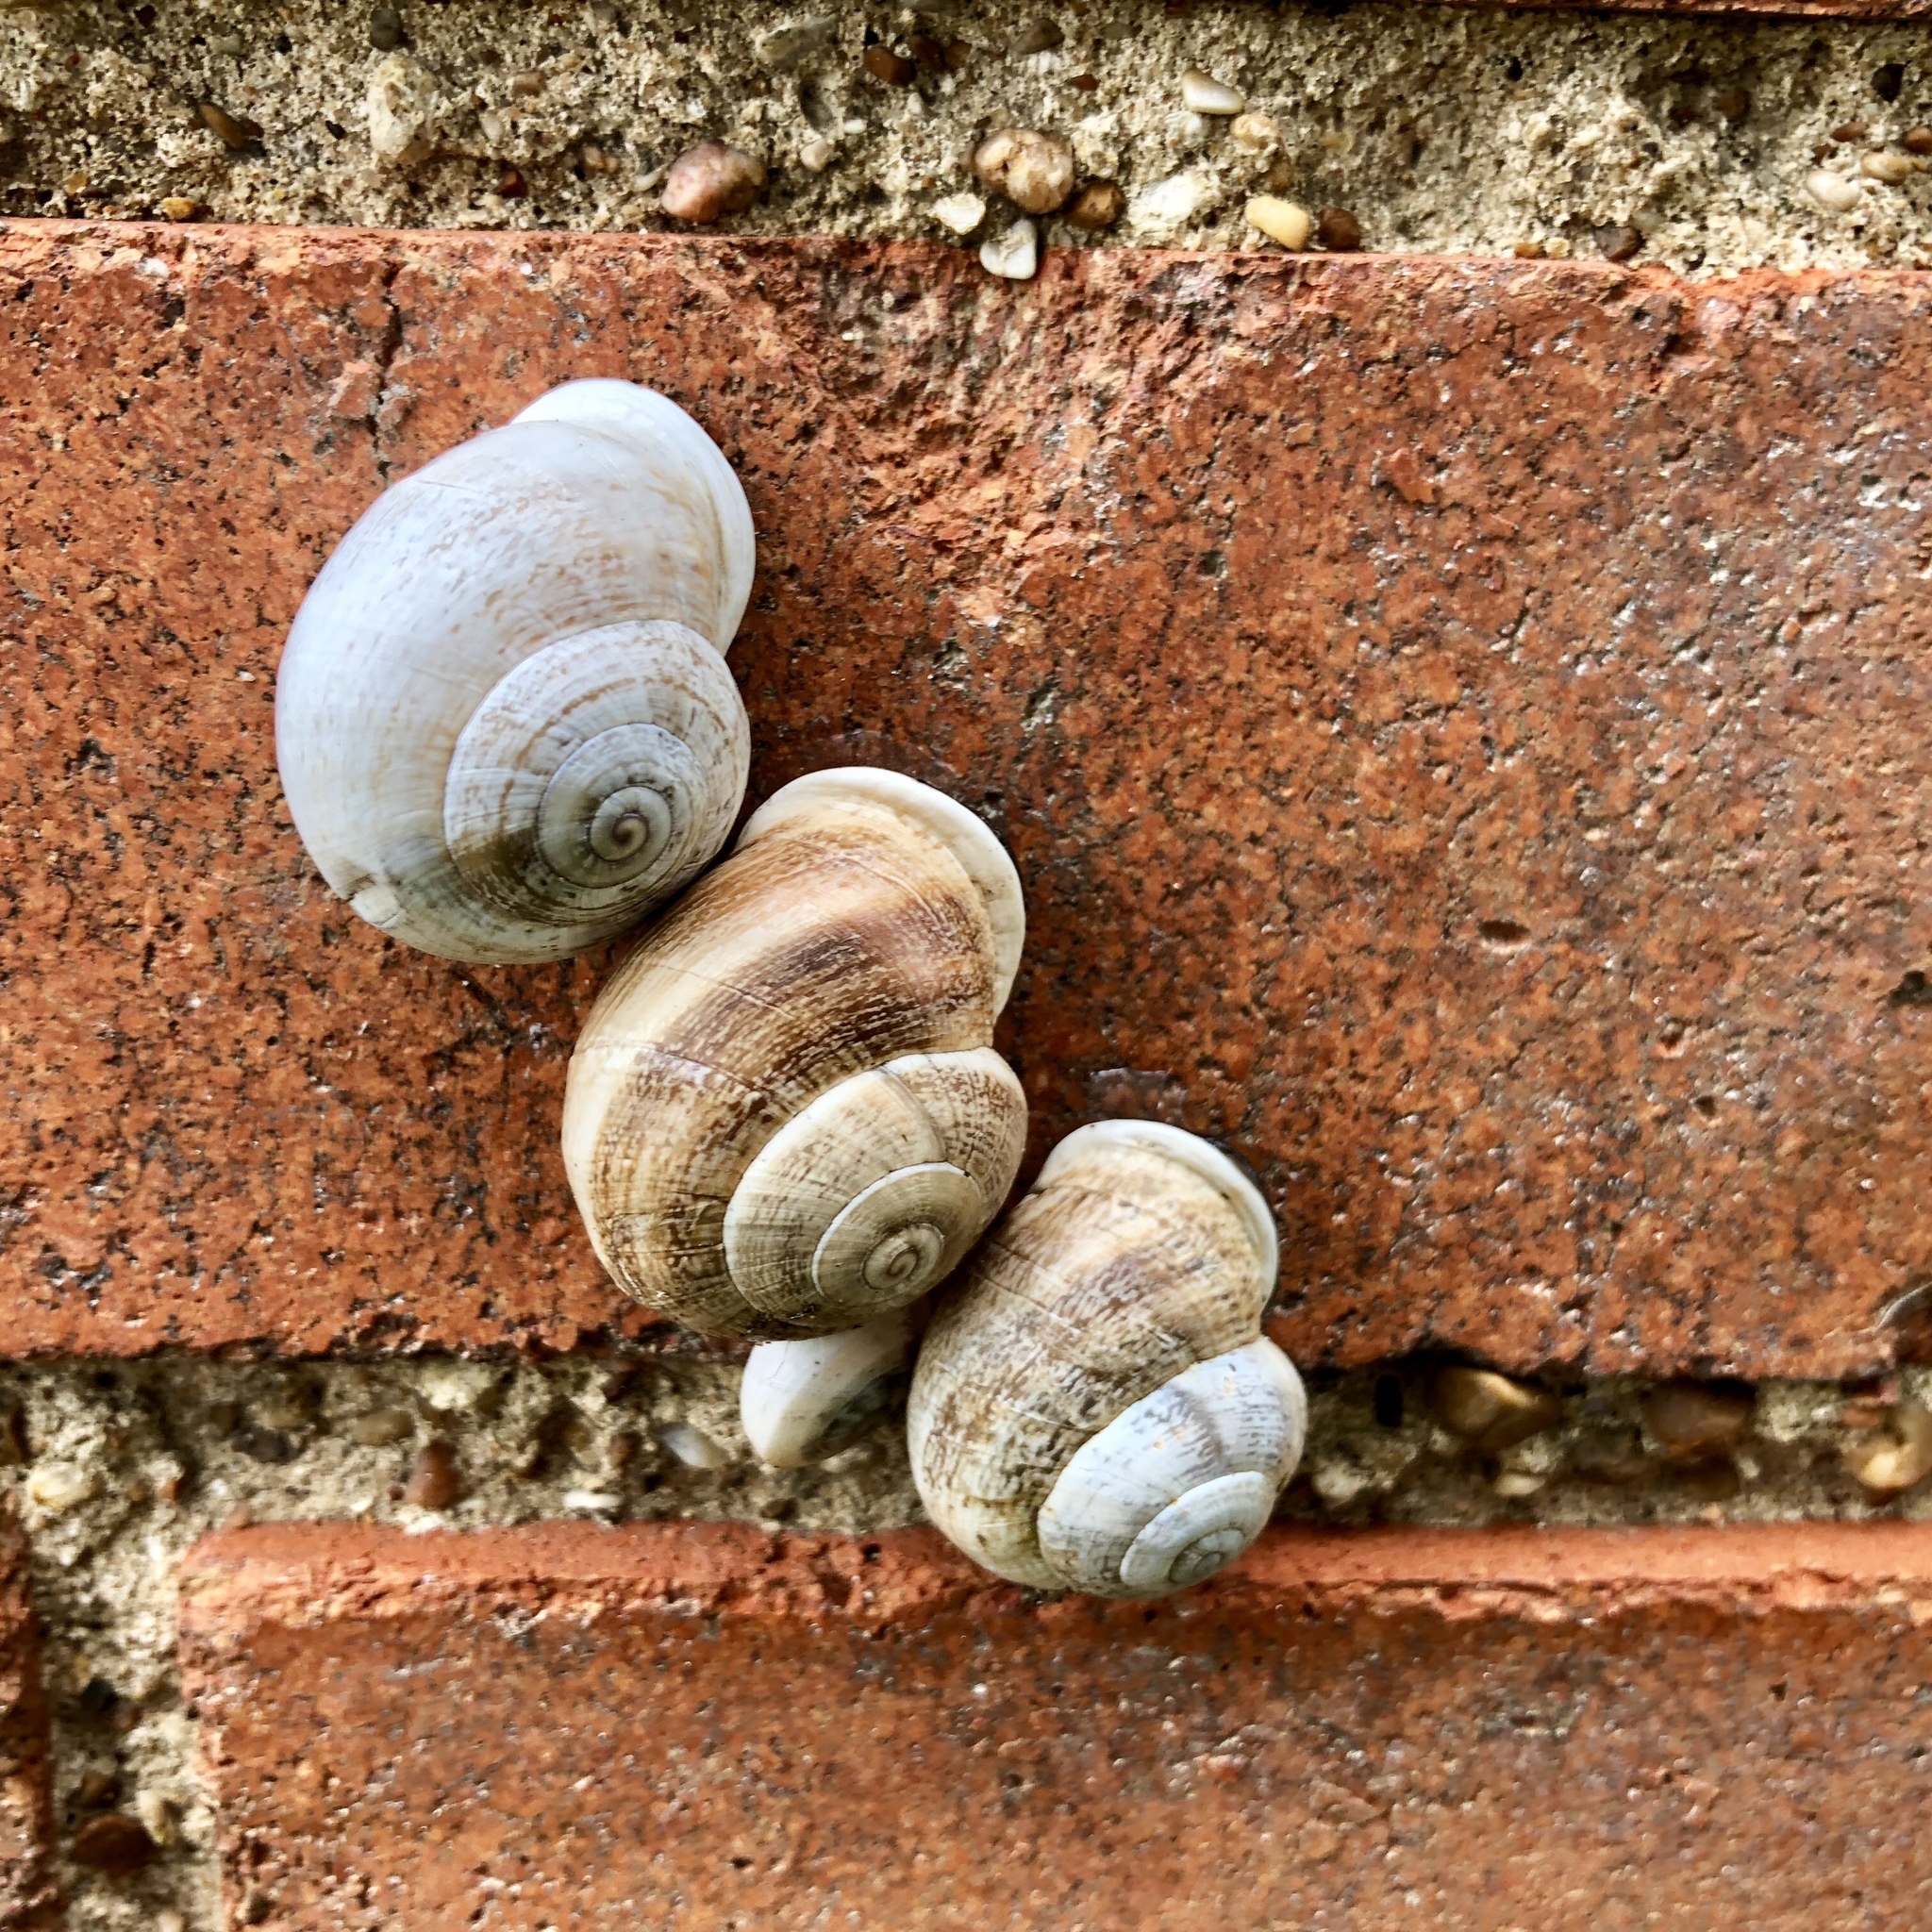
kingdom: Animalia
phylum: Mollusca
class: Gastropoda
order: Stylommatophora
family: Helicidae
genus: Otala
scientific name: Otala lactea
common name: Milk snail
